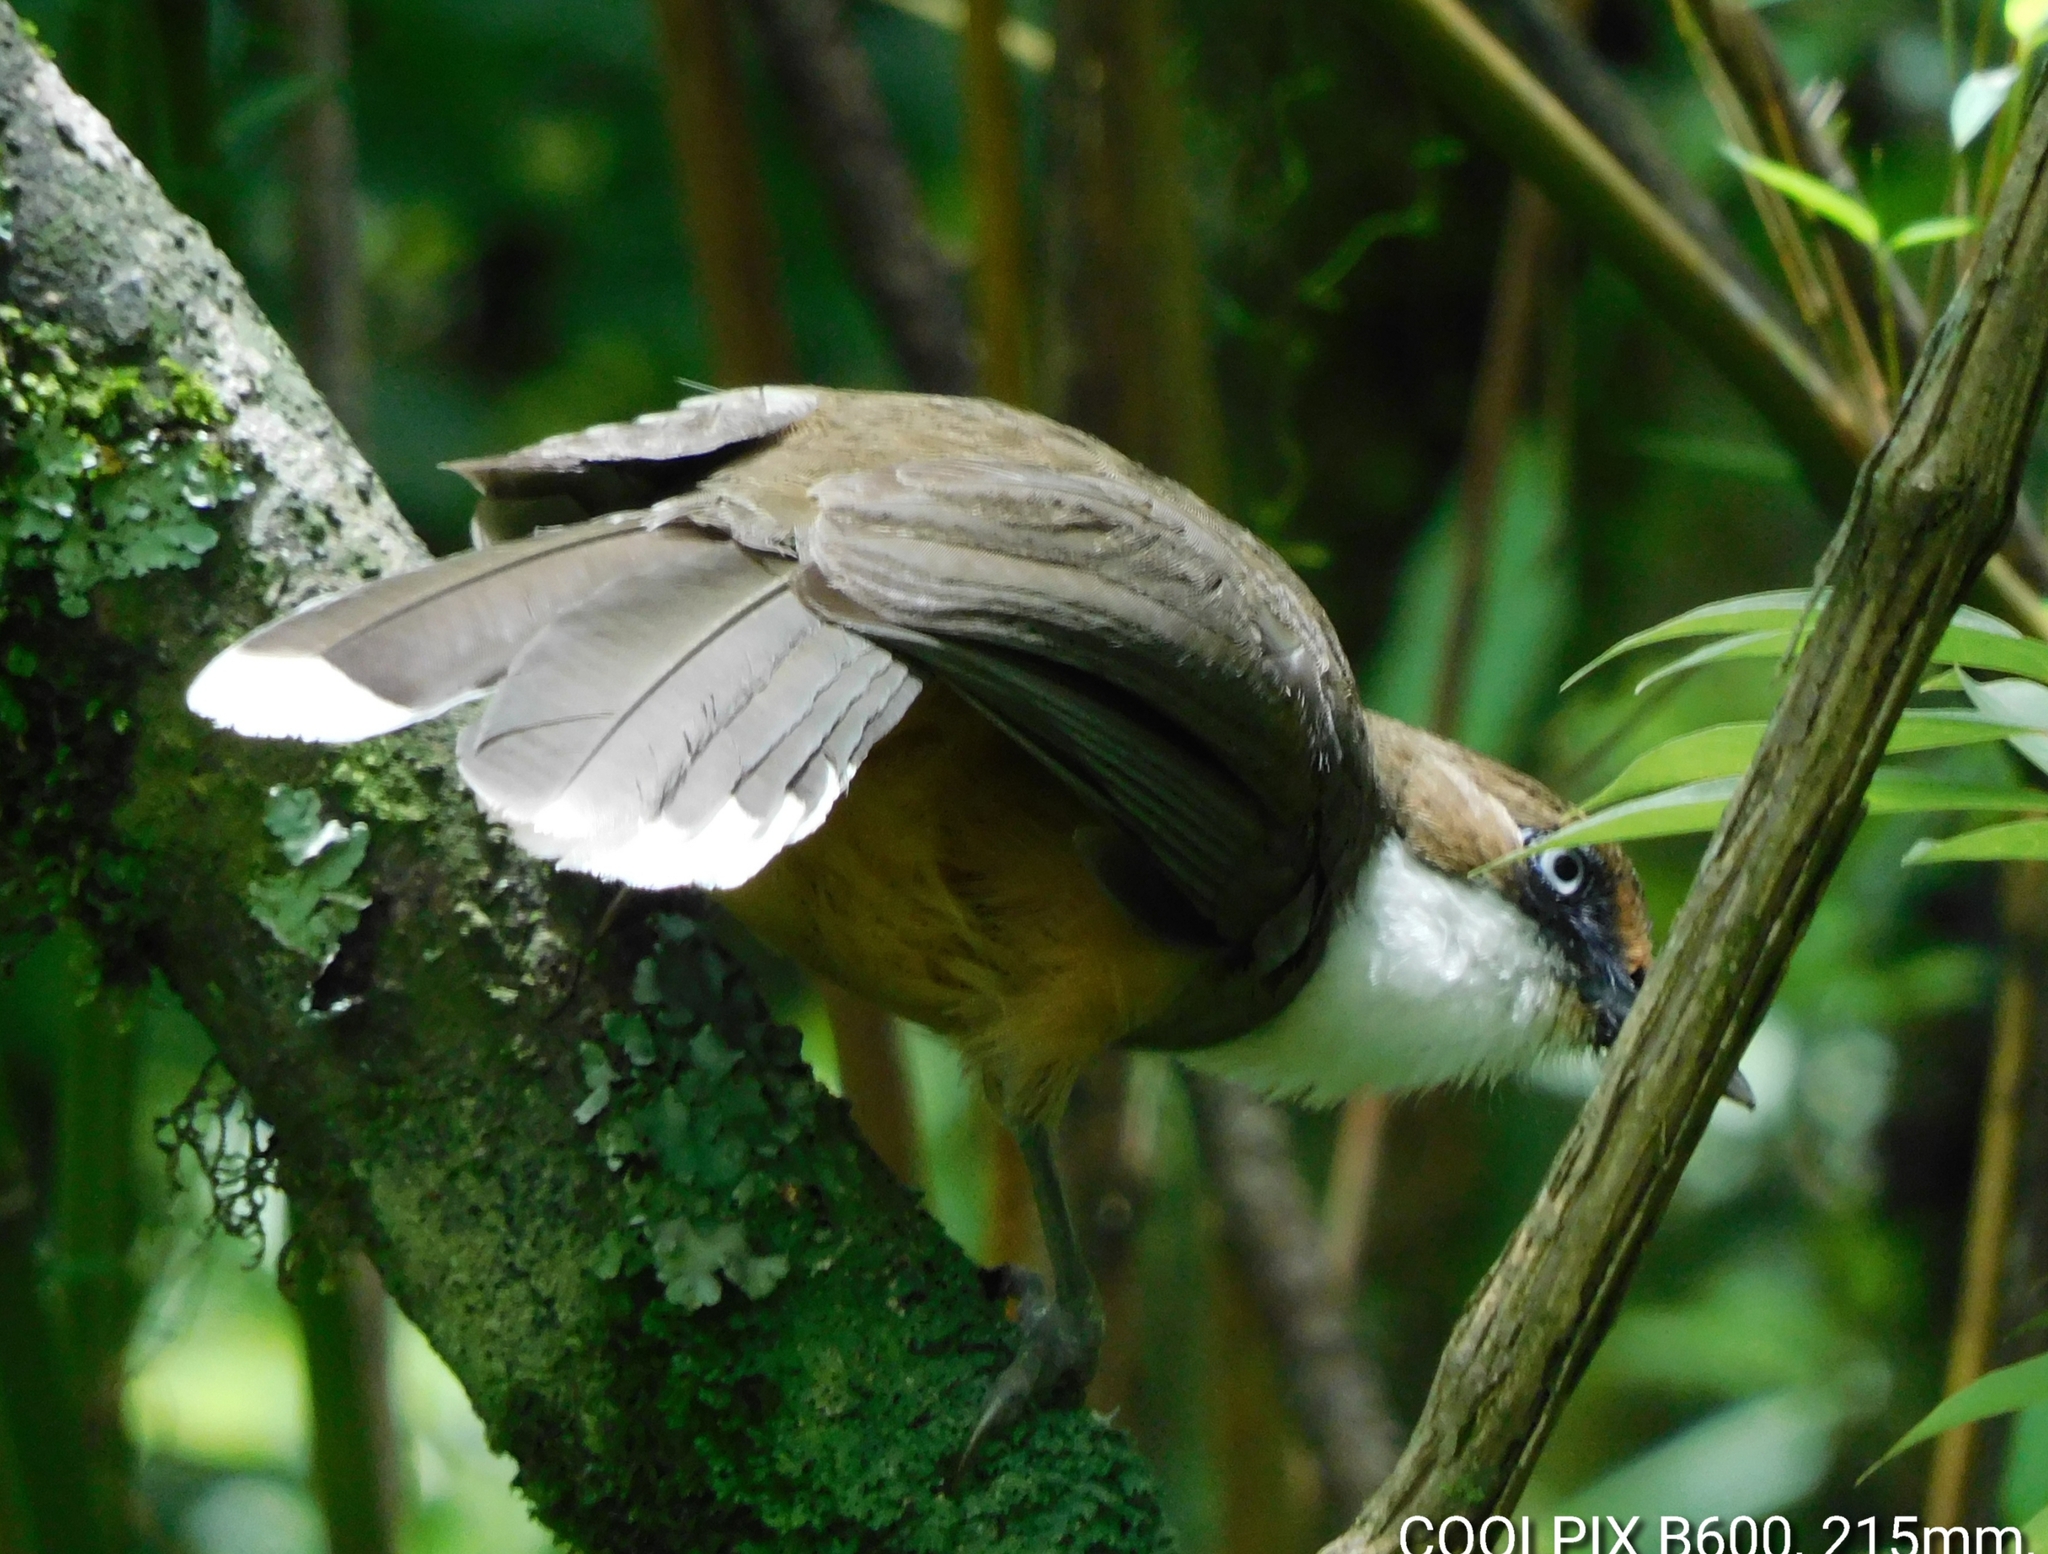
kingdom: Animalia
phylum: Chordata
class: Aves
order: Passeriformes
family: Leiothrichidae
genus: Garrulax
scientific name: Garrulax albogularis
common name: White-throated laughingthrush
